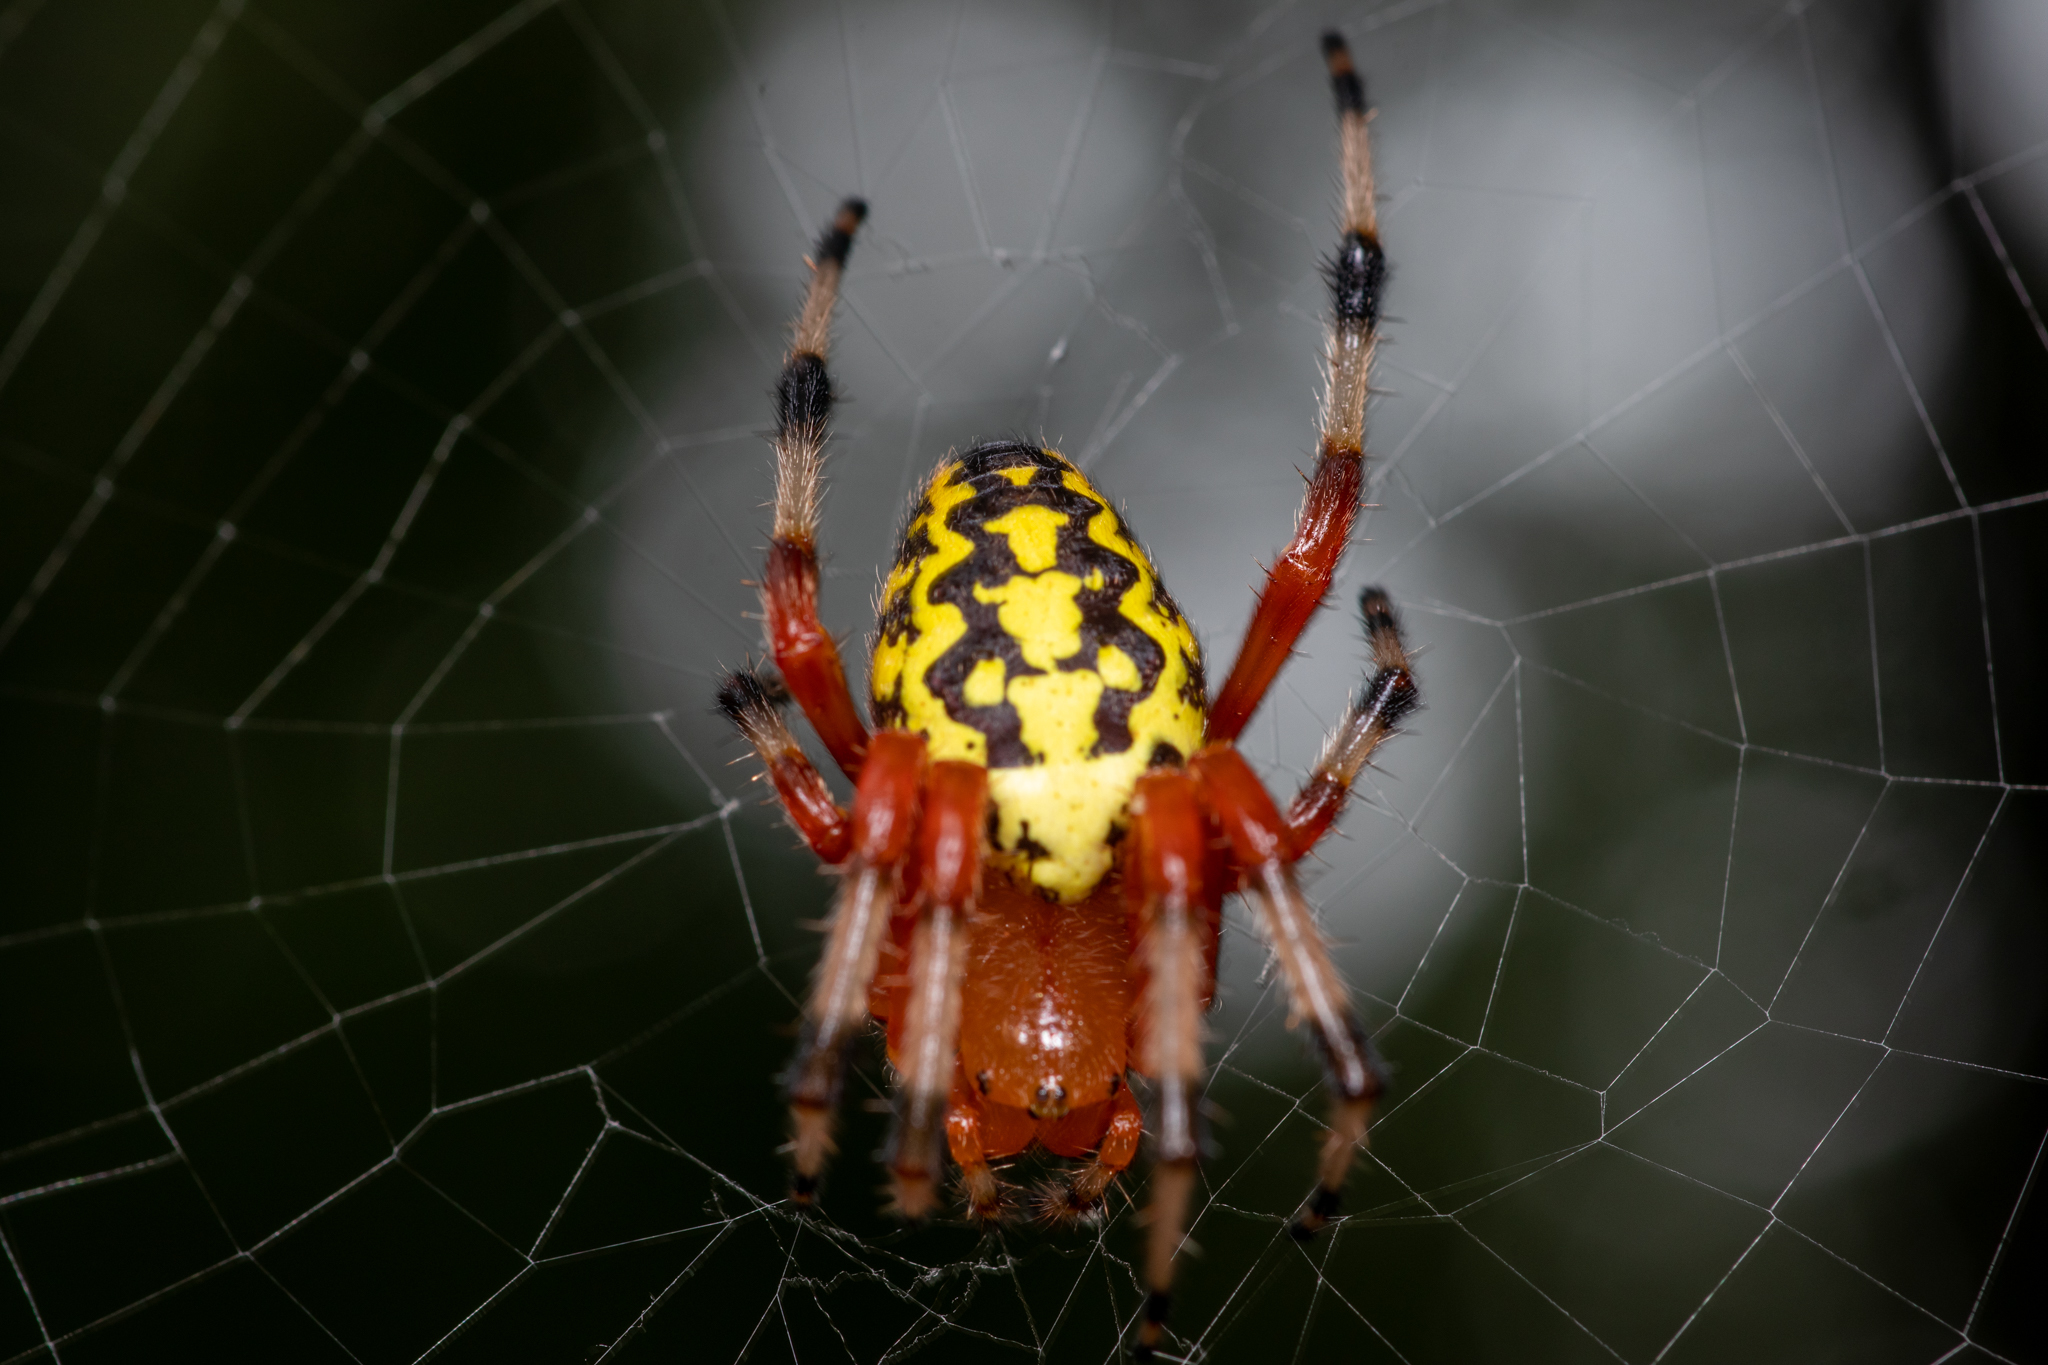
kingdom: Animalia
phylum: Arthropoda
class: Arachnida
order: Araneae
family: Araneidae
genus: Araneus
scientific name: Araneus marmoreus
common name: Marbled orbweaver
